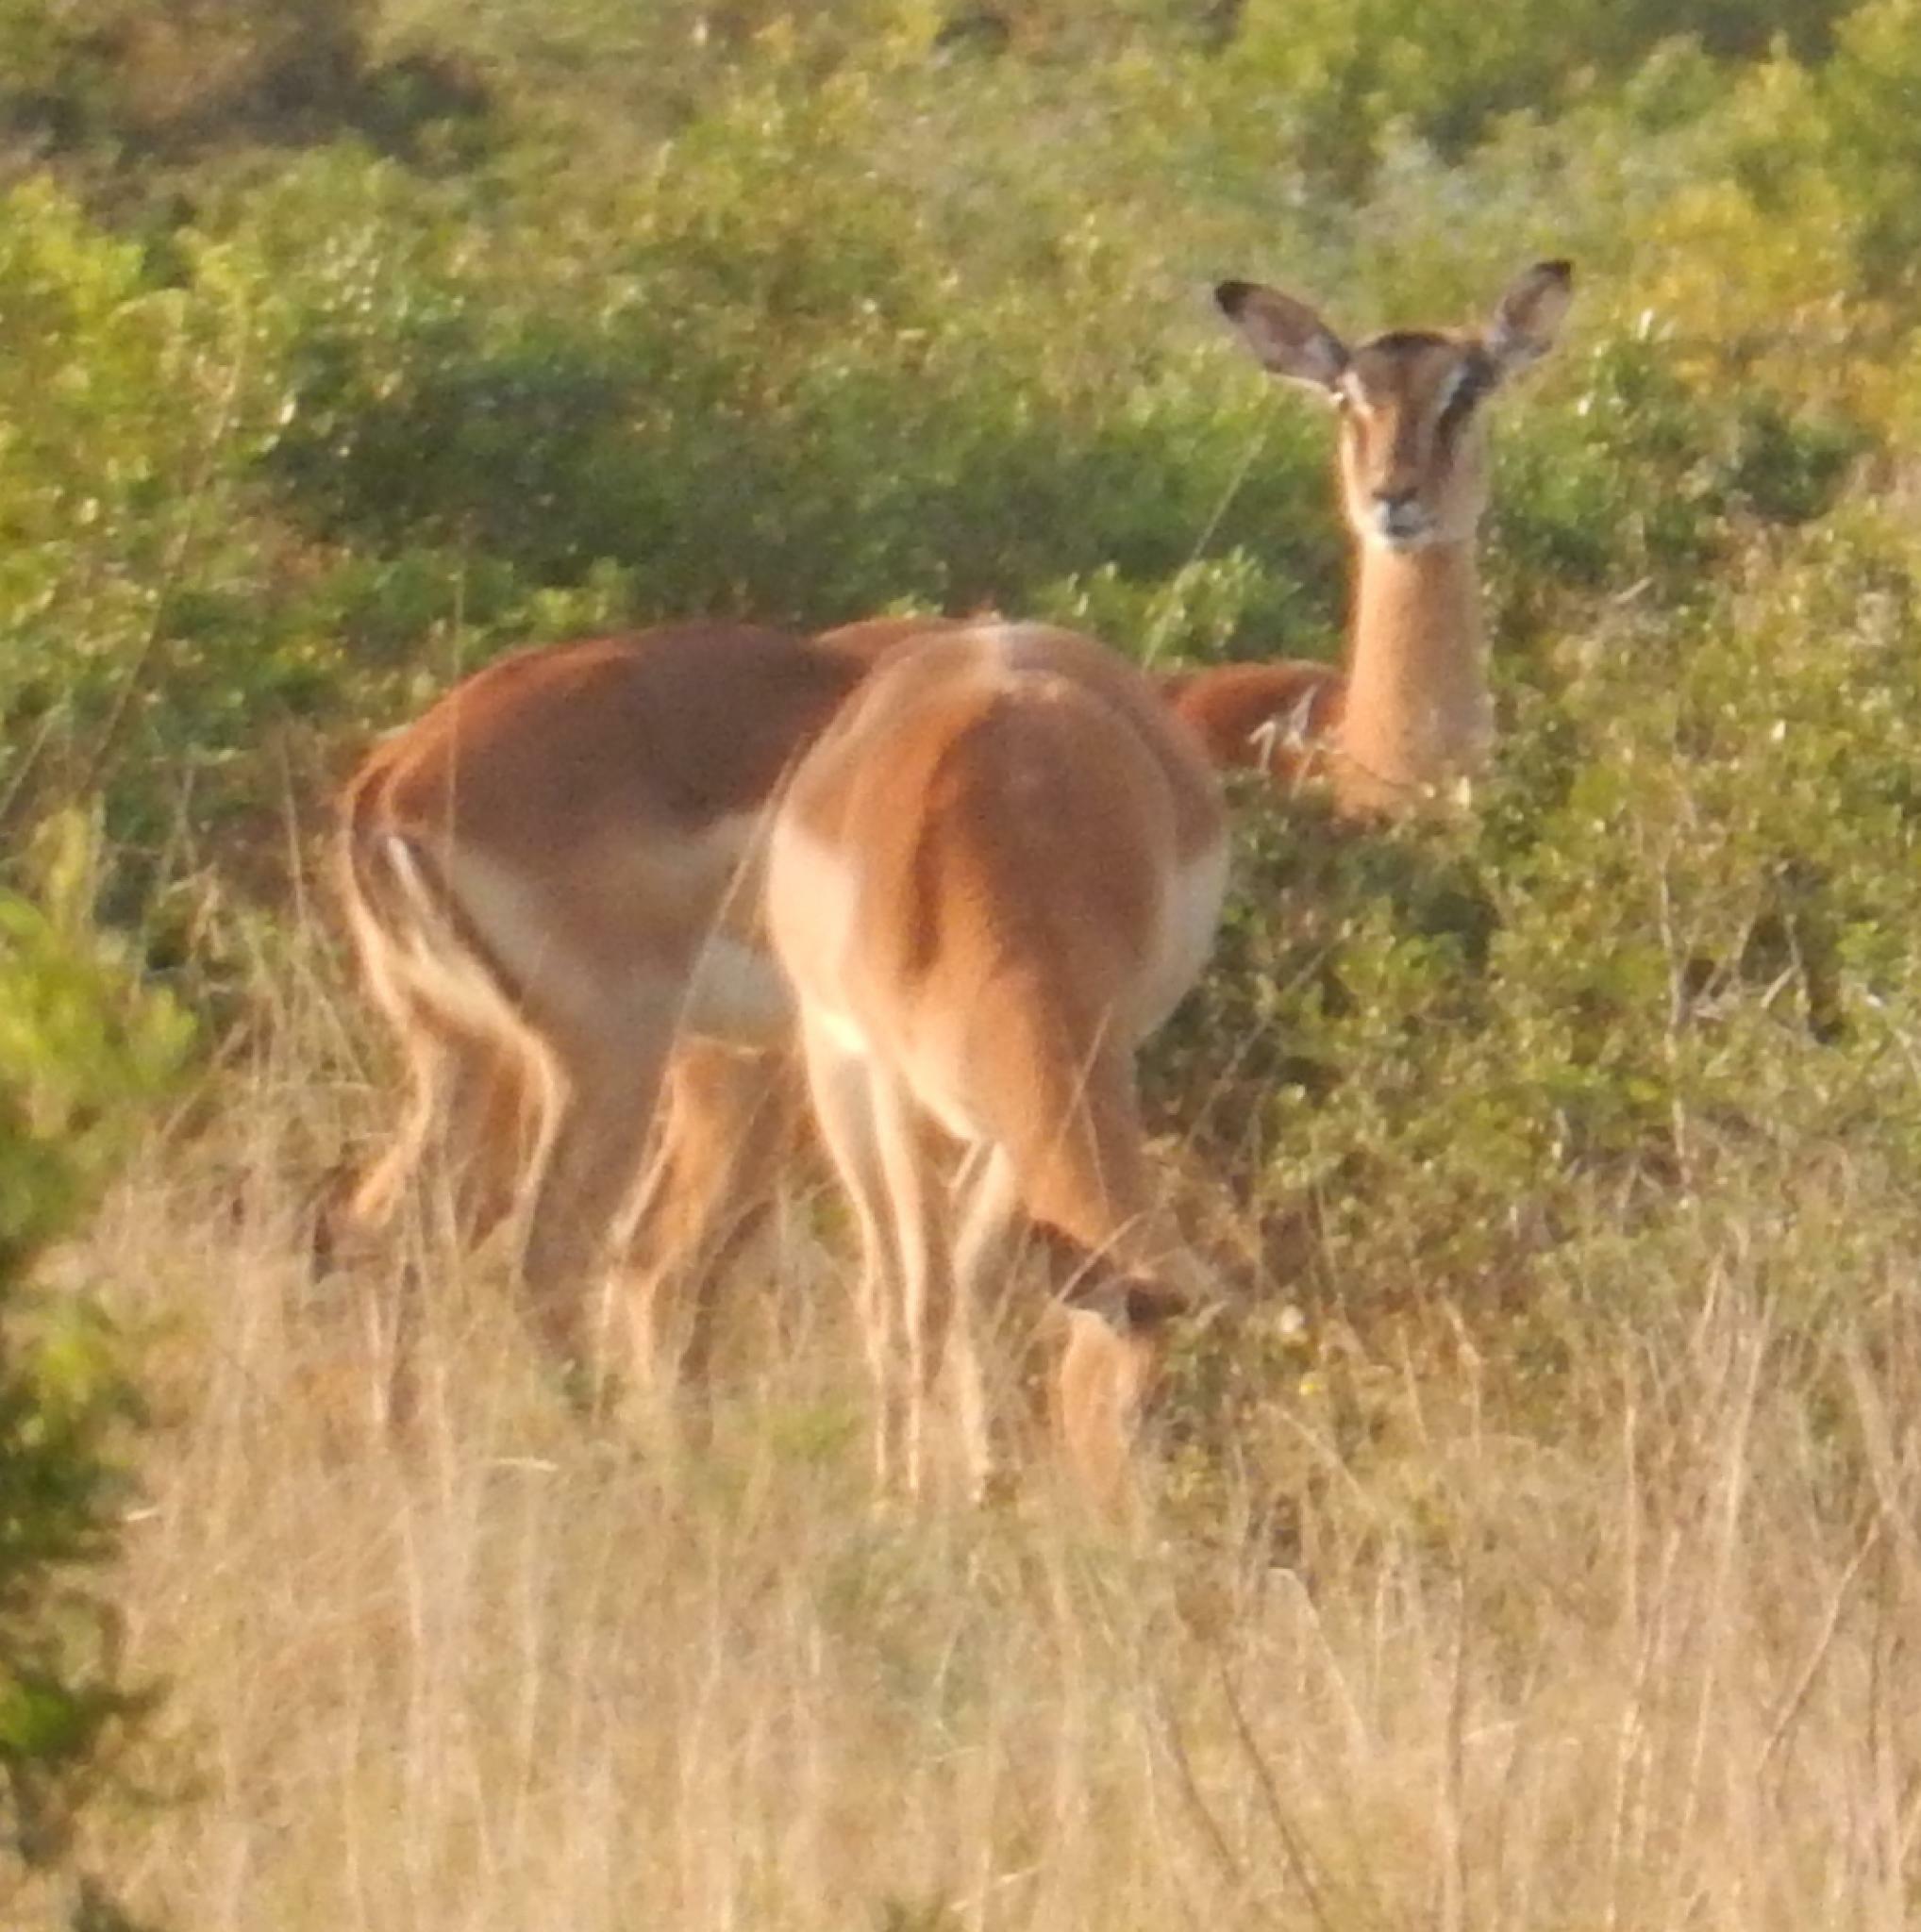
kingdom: Animalia
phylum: Chordata
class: Mammalia
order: Artiodactyla
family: Bovidae
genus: Aepyceros
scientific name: Aepyceros melampus
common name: Impala
